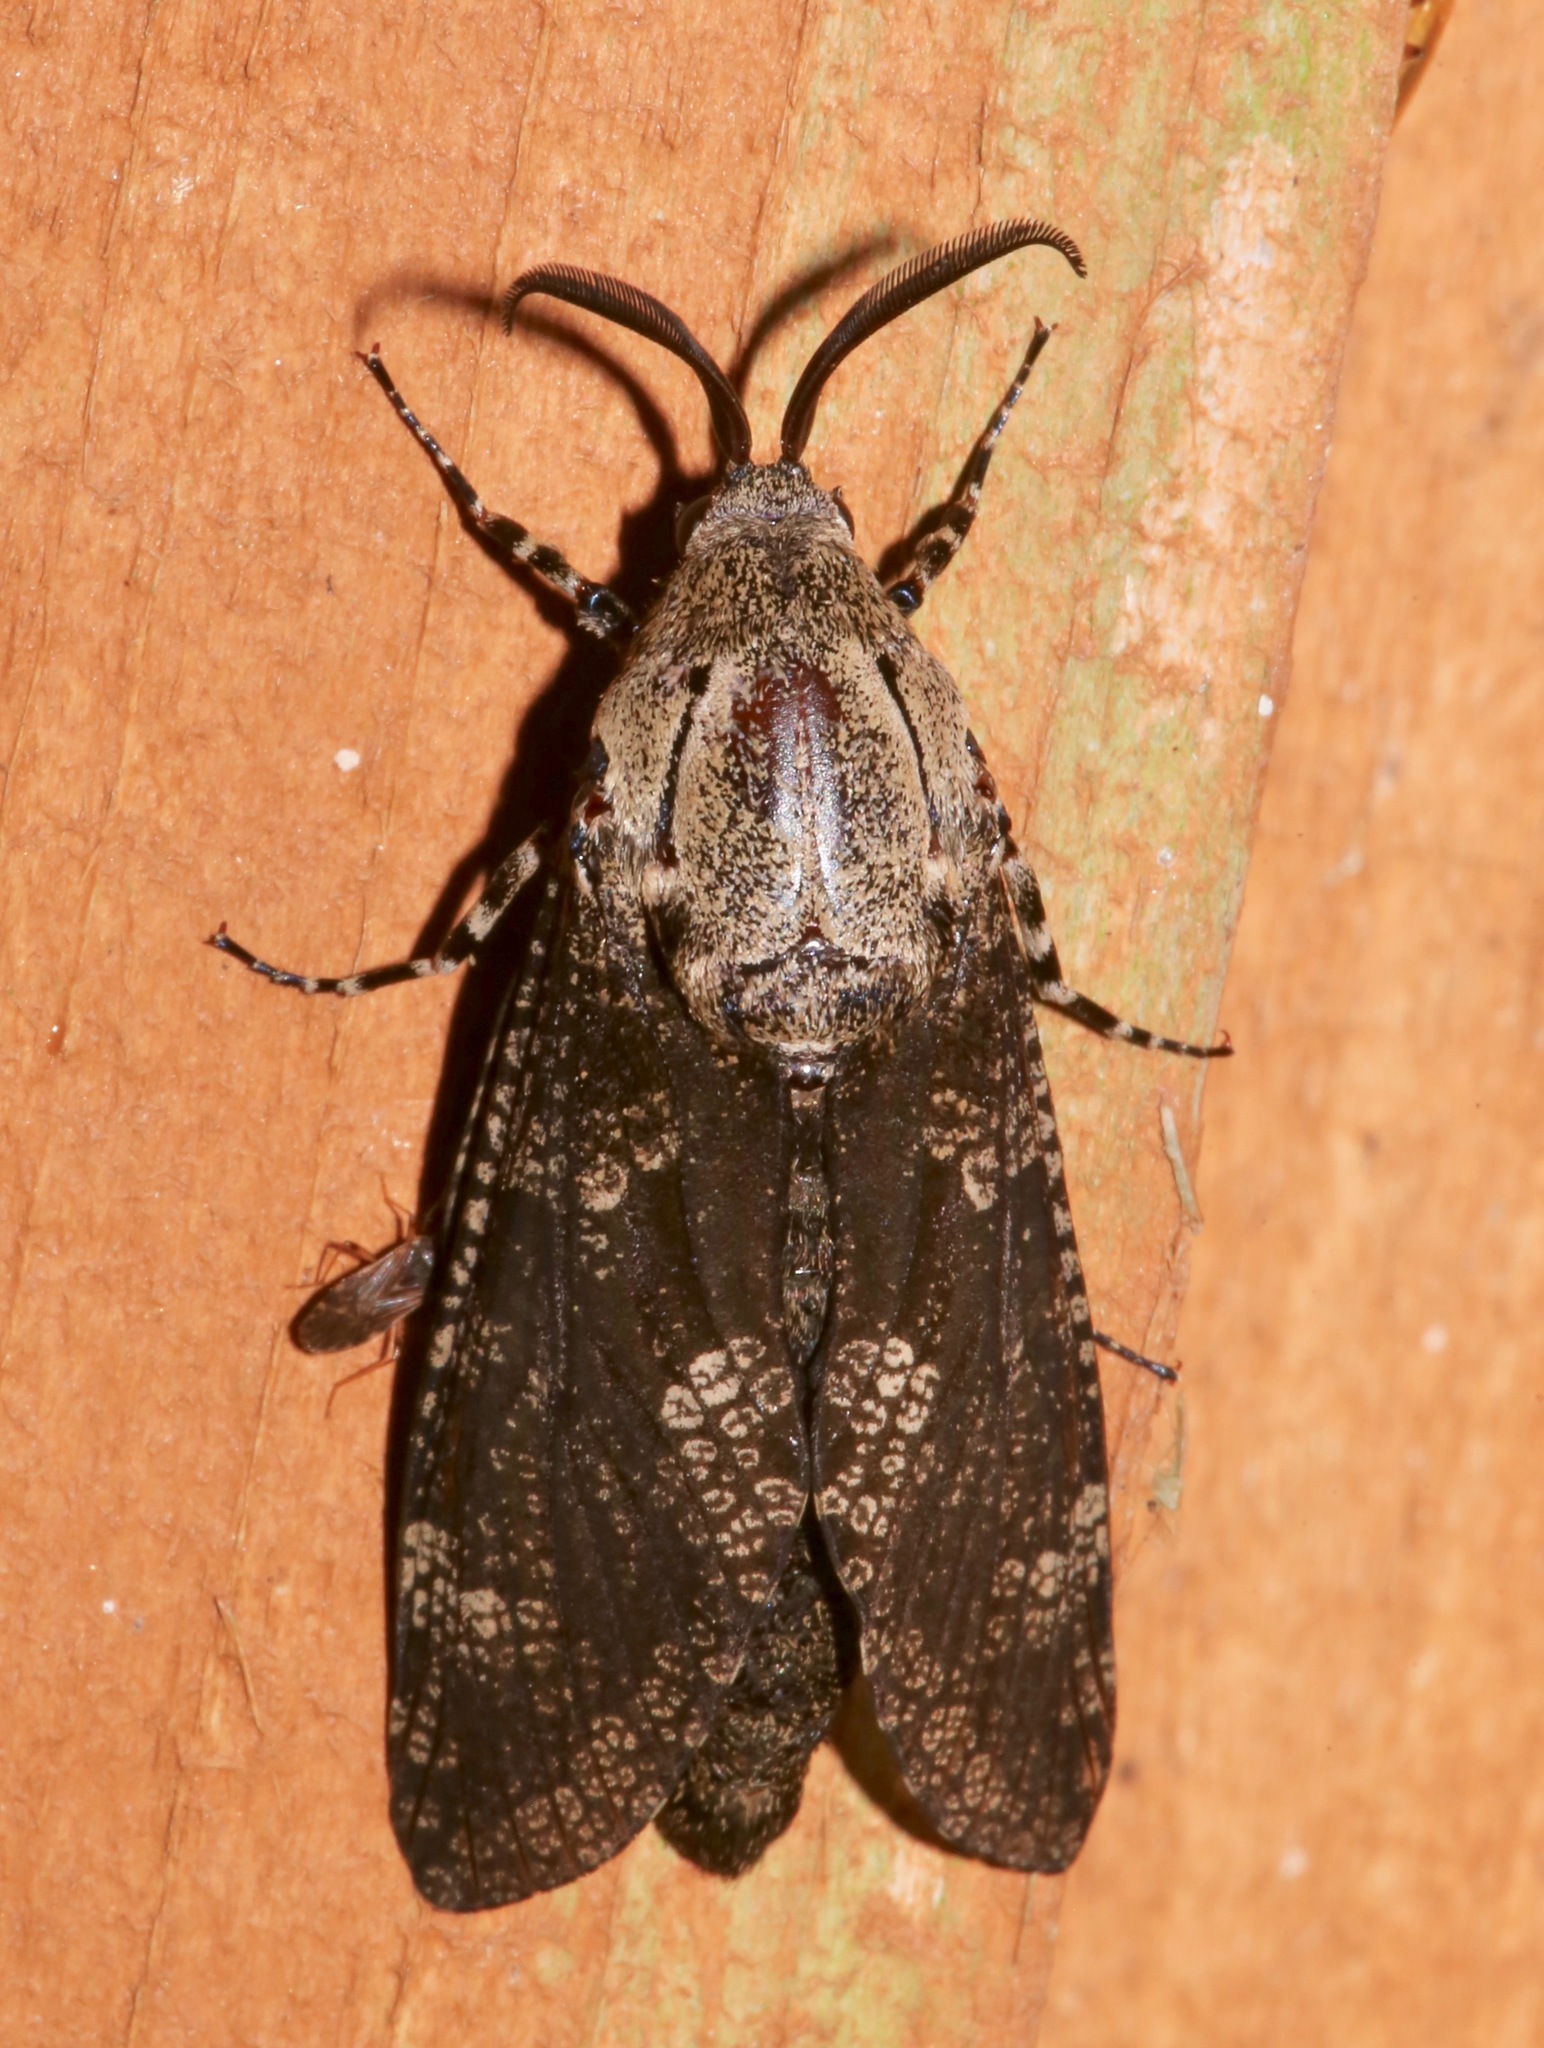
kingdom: Animalia
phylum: Arthropoda
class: Insecta
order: Lepidoptera
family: Cossidae
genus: Prionoxystus
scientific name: Prionoxystus robiniae
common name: Carpenterworm
